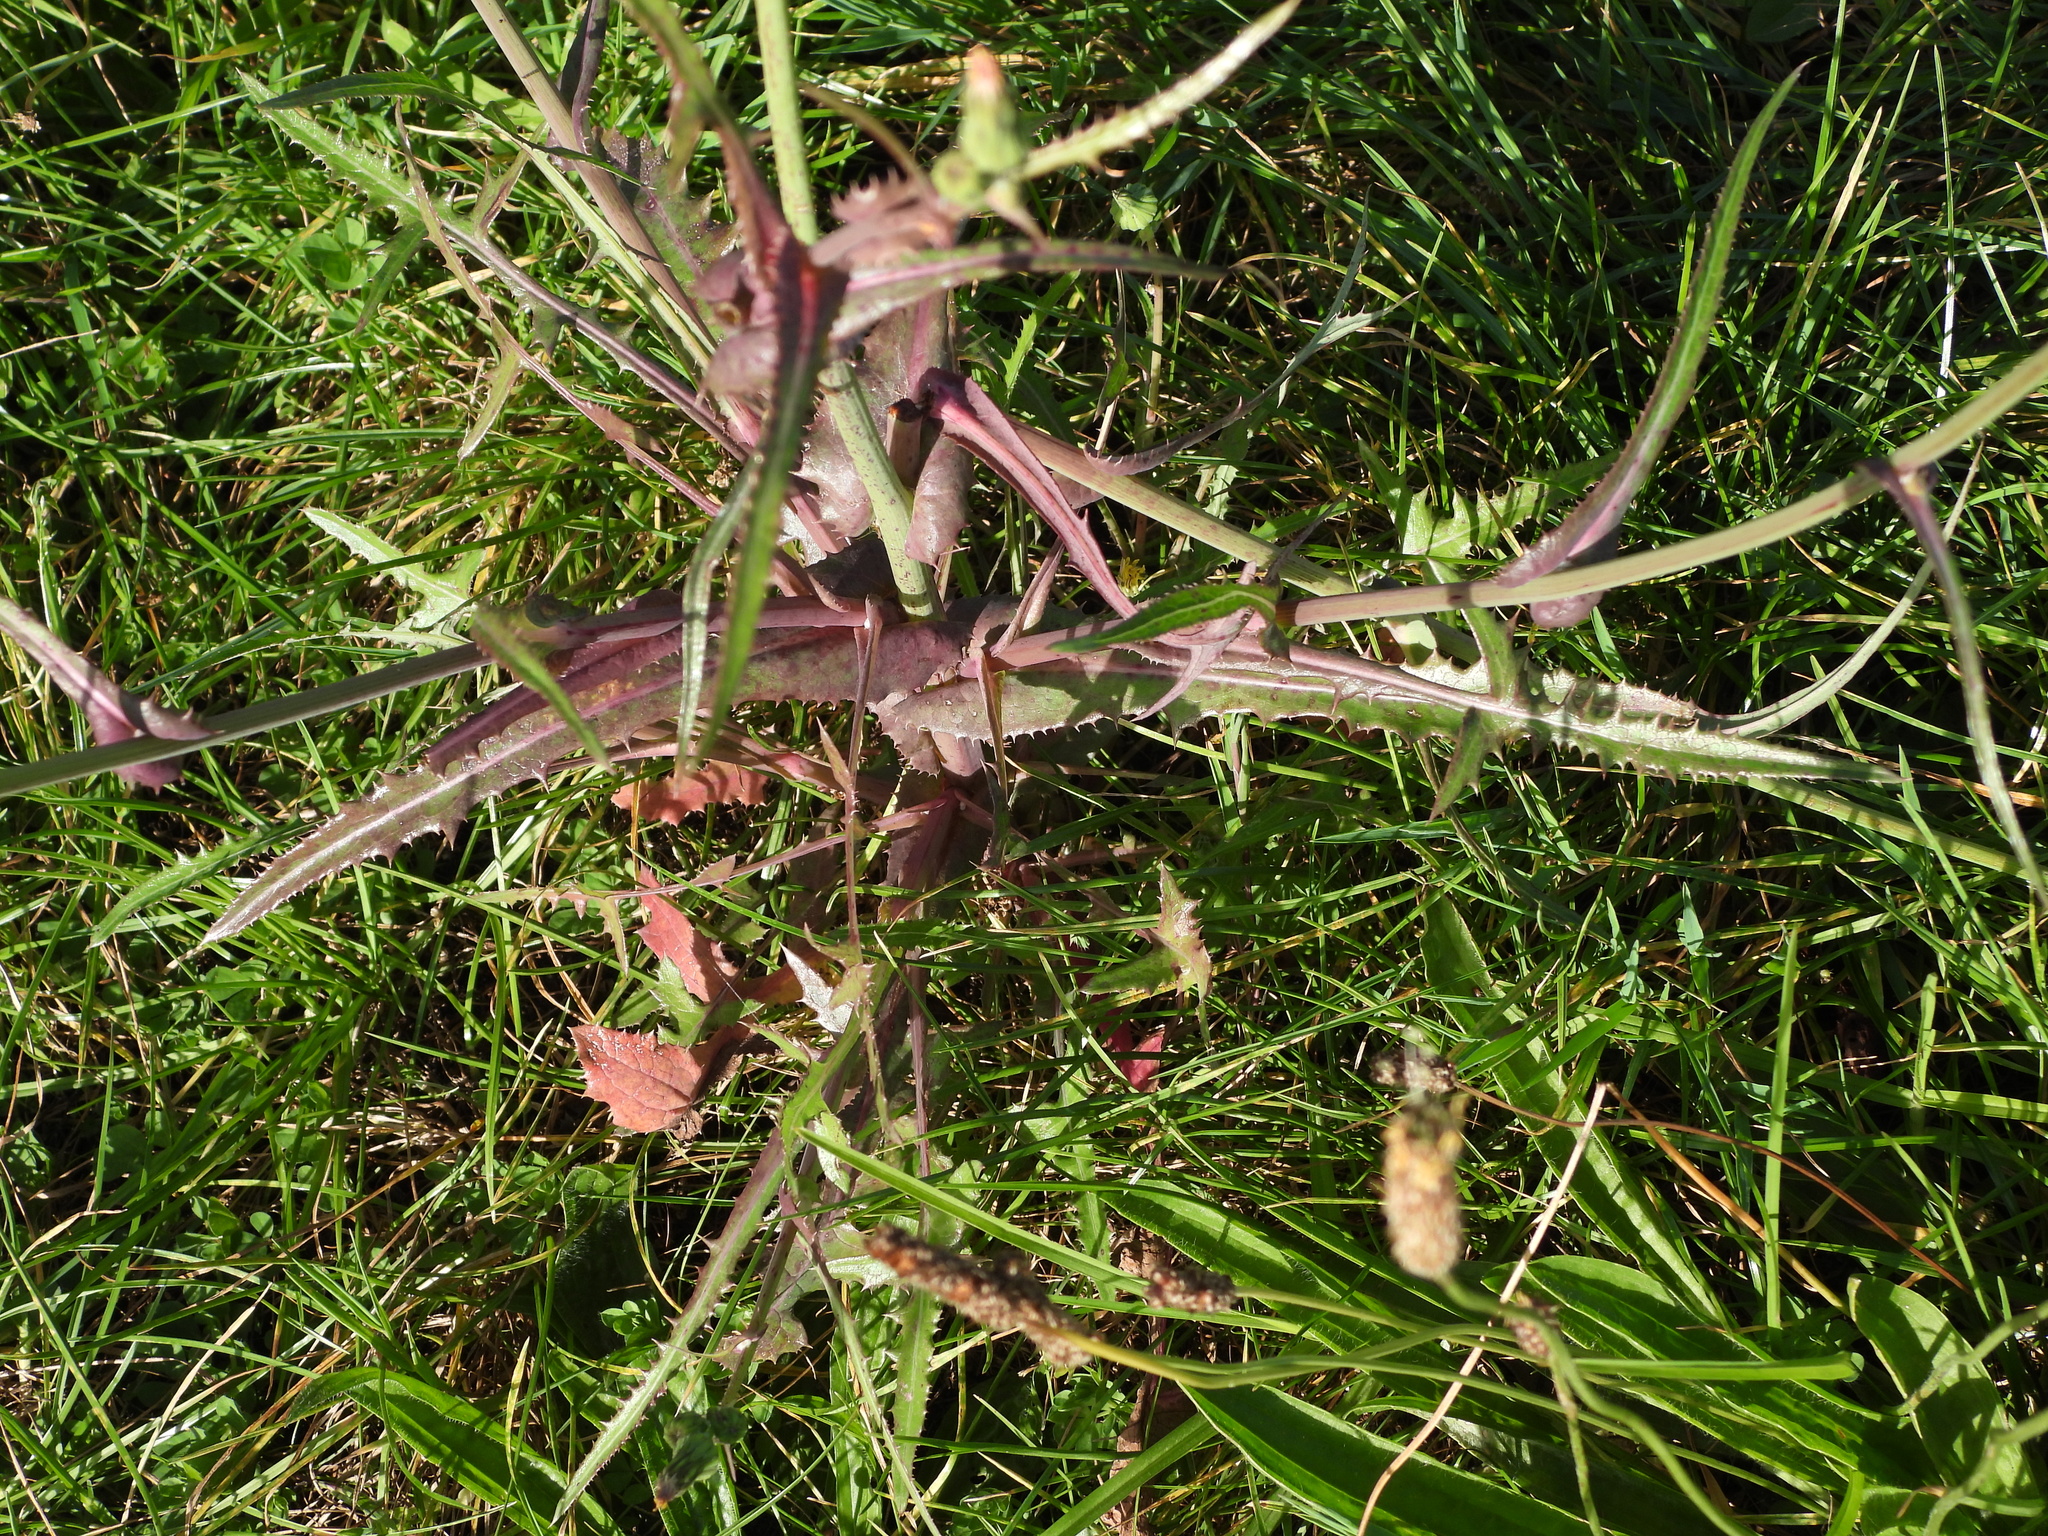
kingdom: Plantae
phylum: Tracheophyta
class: Magnoliopsida
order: Asterales
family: Asteraceae
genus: Sonchus
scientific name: Sonchus oleraceus
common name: Common sowthistle
